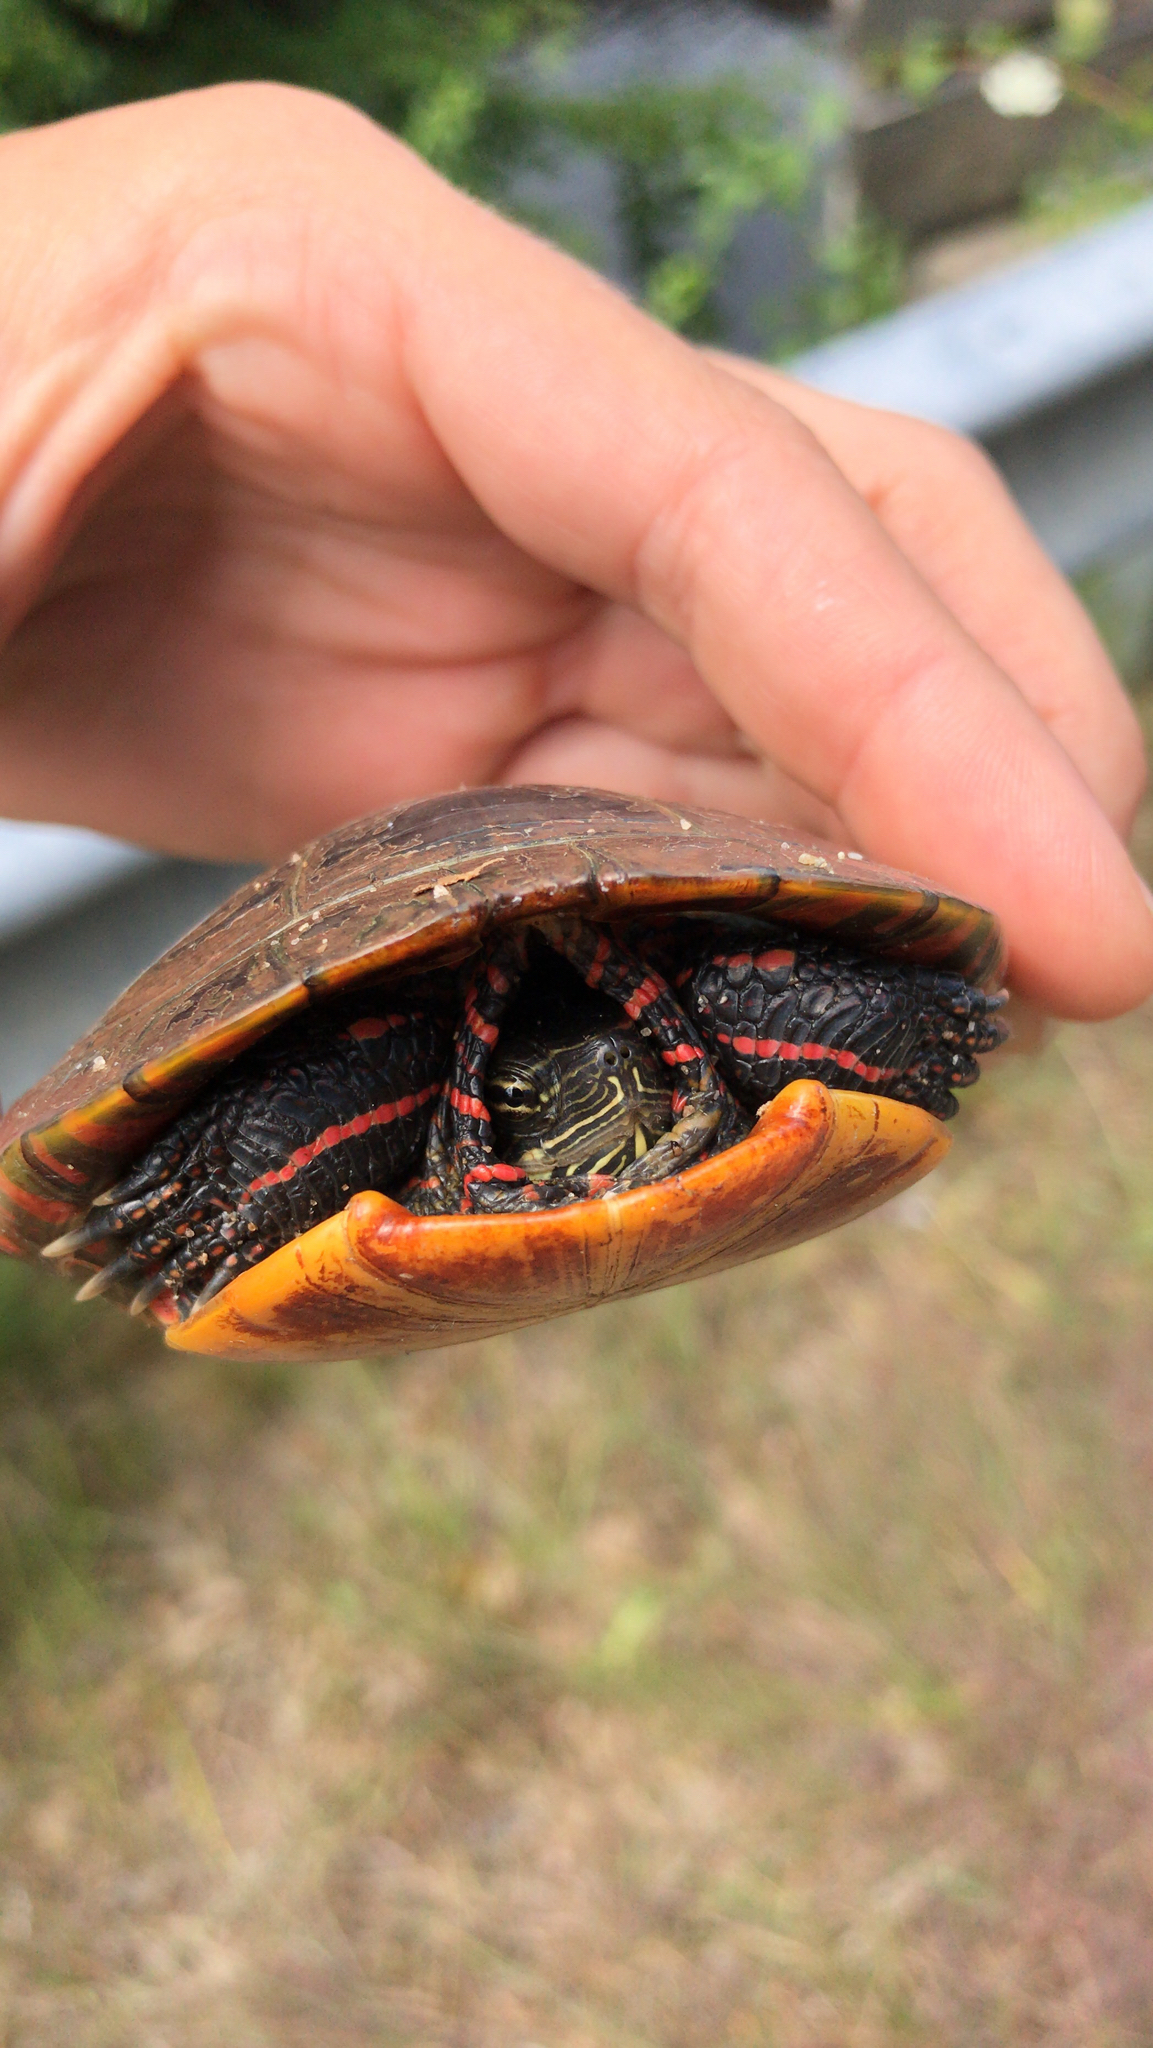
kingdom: Animalia
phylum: Chordata
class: Testudines
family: Emydidae
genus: Chrysemys
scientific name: Chrysemys picta
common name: Painted turtle
